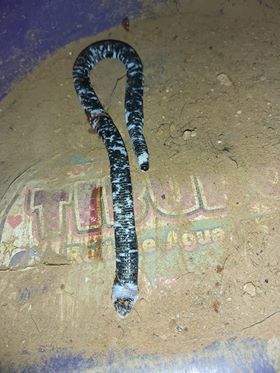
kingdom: Animalia
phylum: Chordata
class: Squamata
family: Amphisbaenidae
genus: Amphisbaena
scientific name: Amphisbaena fuliginosa
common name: Speckled worm lizard
